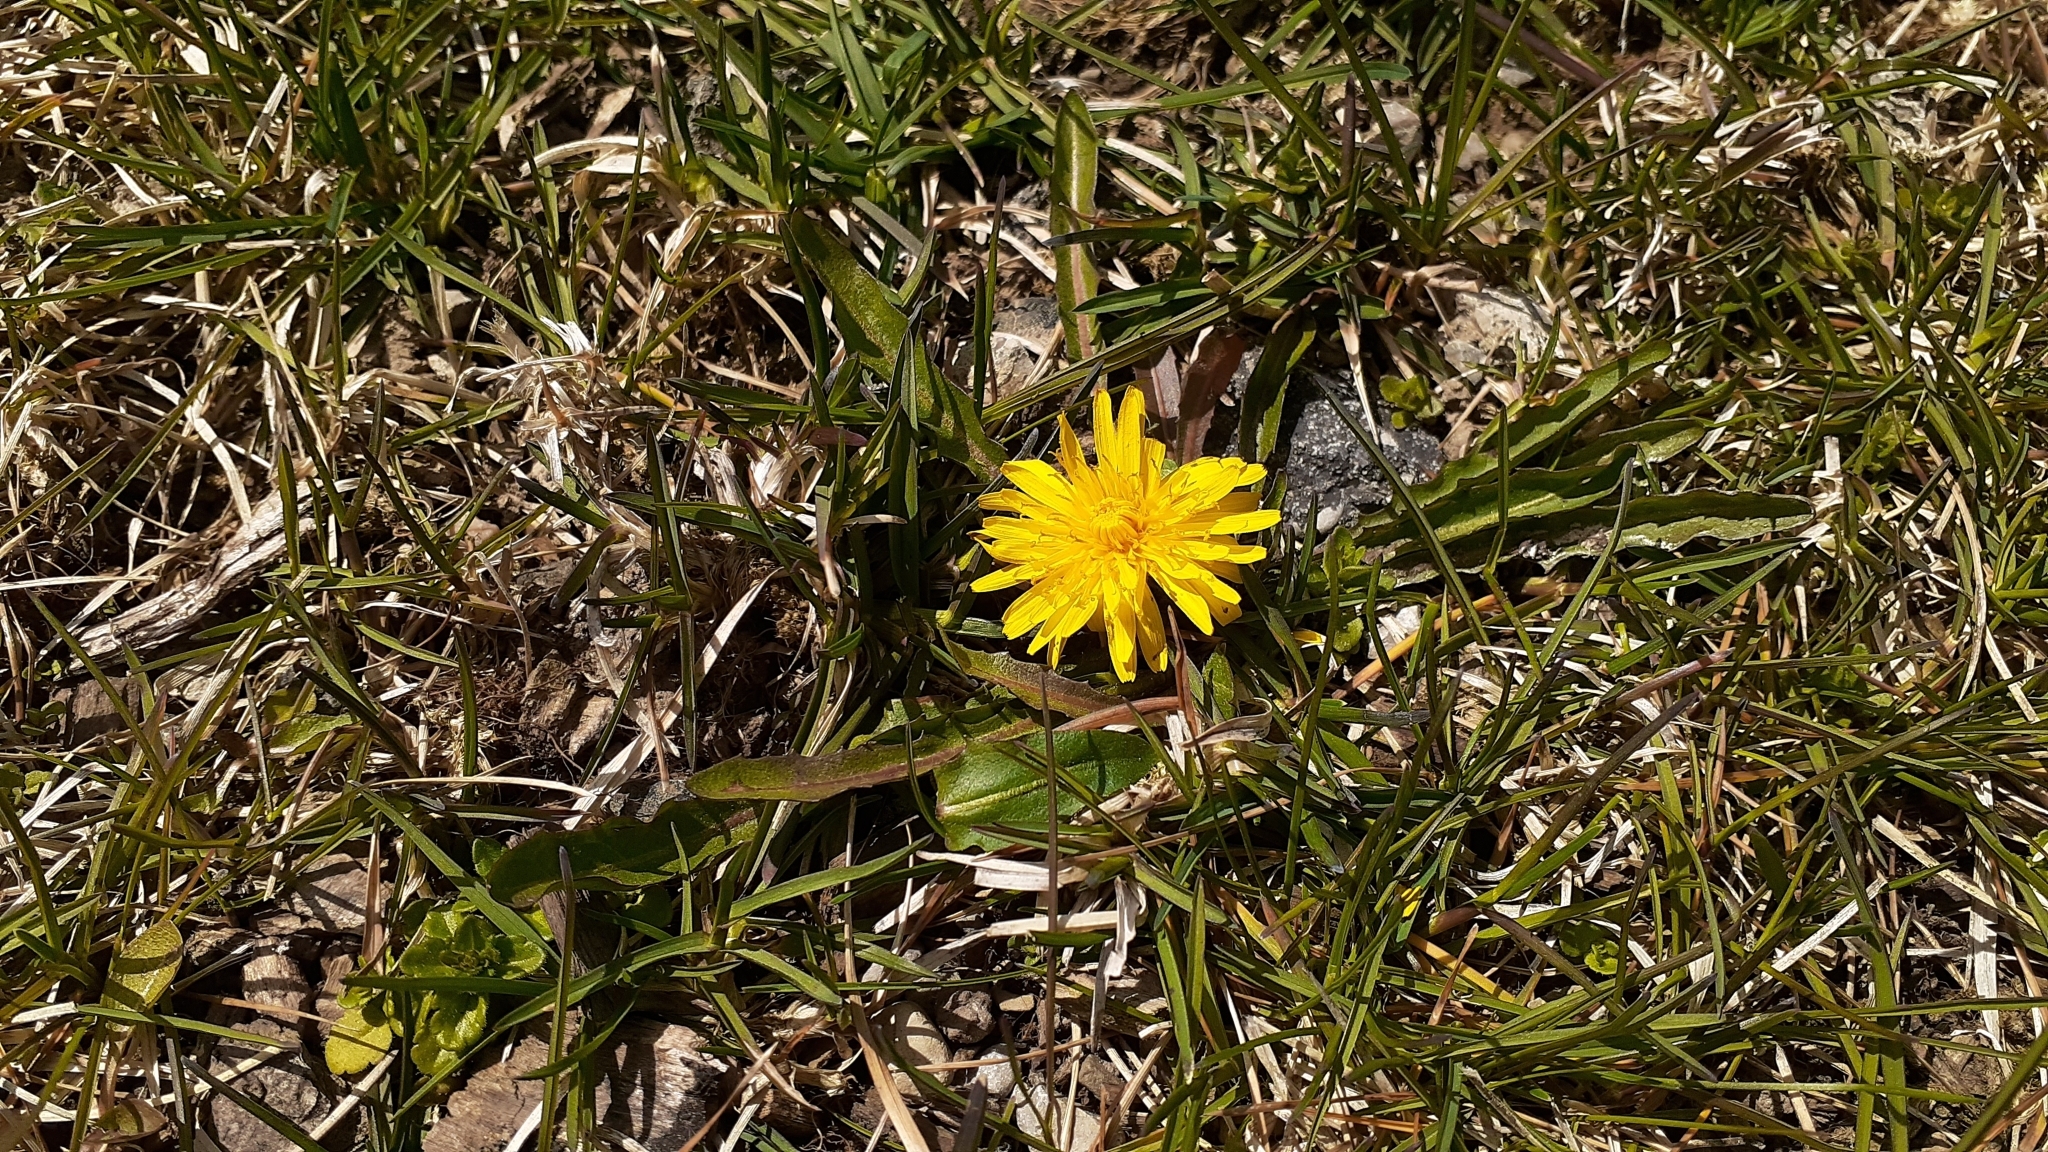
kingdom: Plantae
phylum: Tracheophyta
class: Magnoliopsida
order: Asterales
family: Asteraceae
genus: Taraxacum
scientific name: Taraxacum palustre
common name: Marsh dandelion
